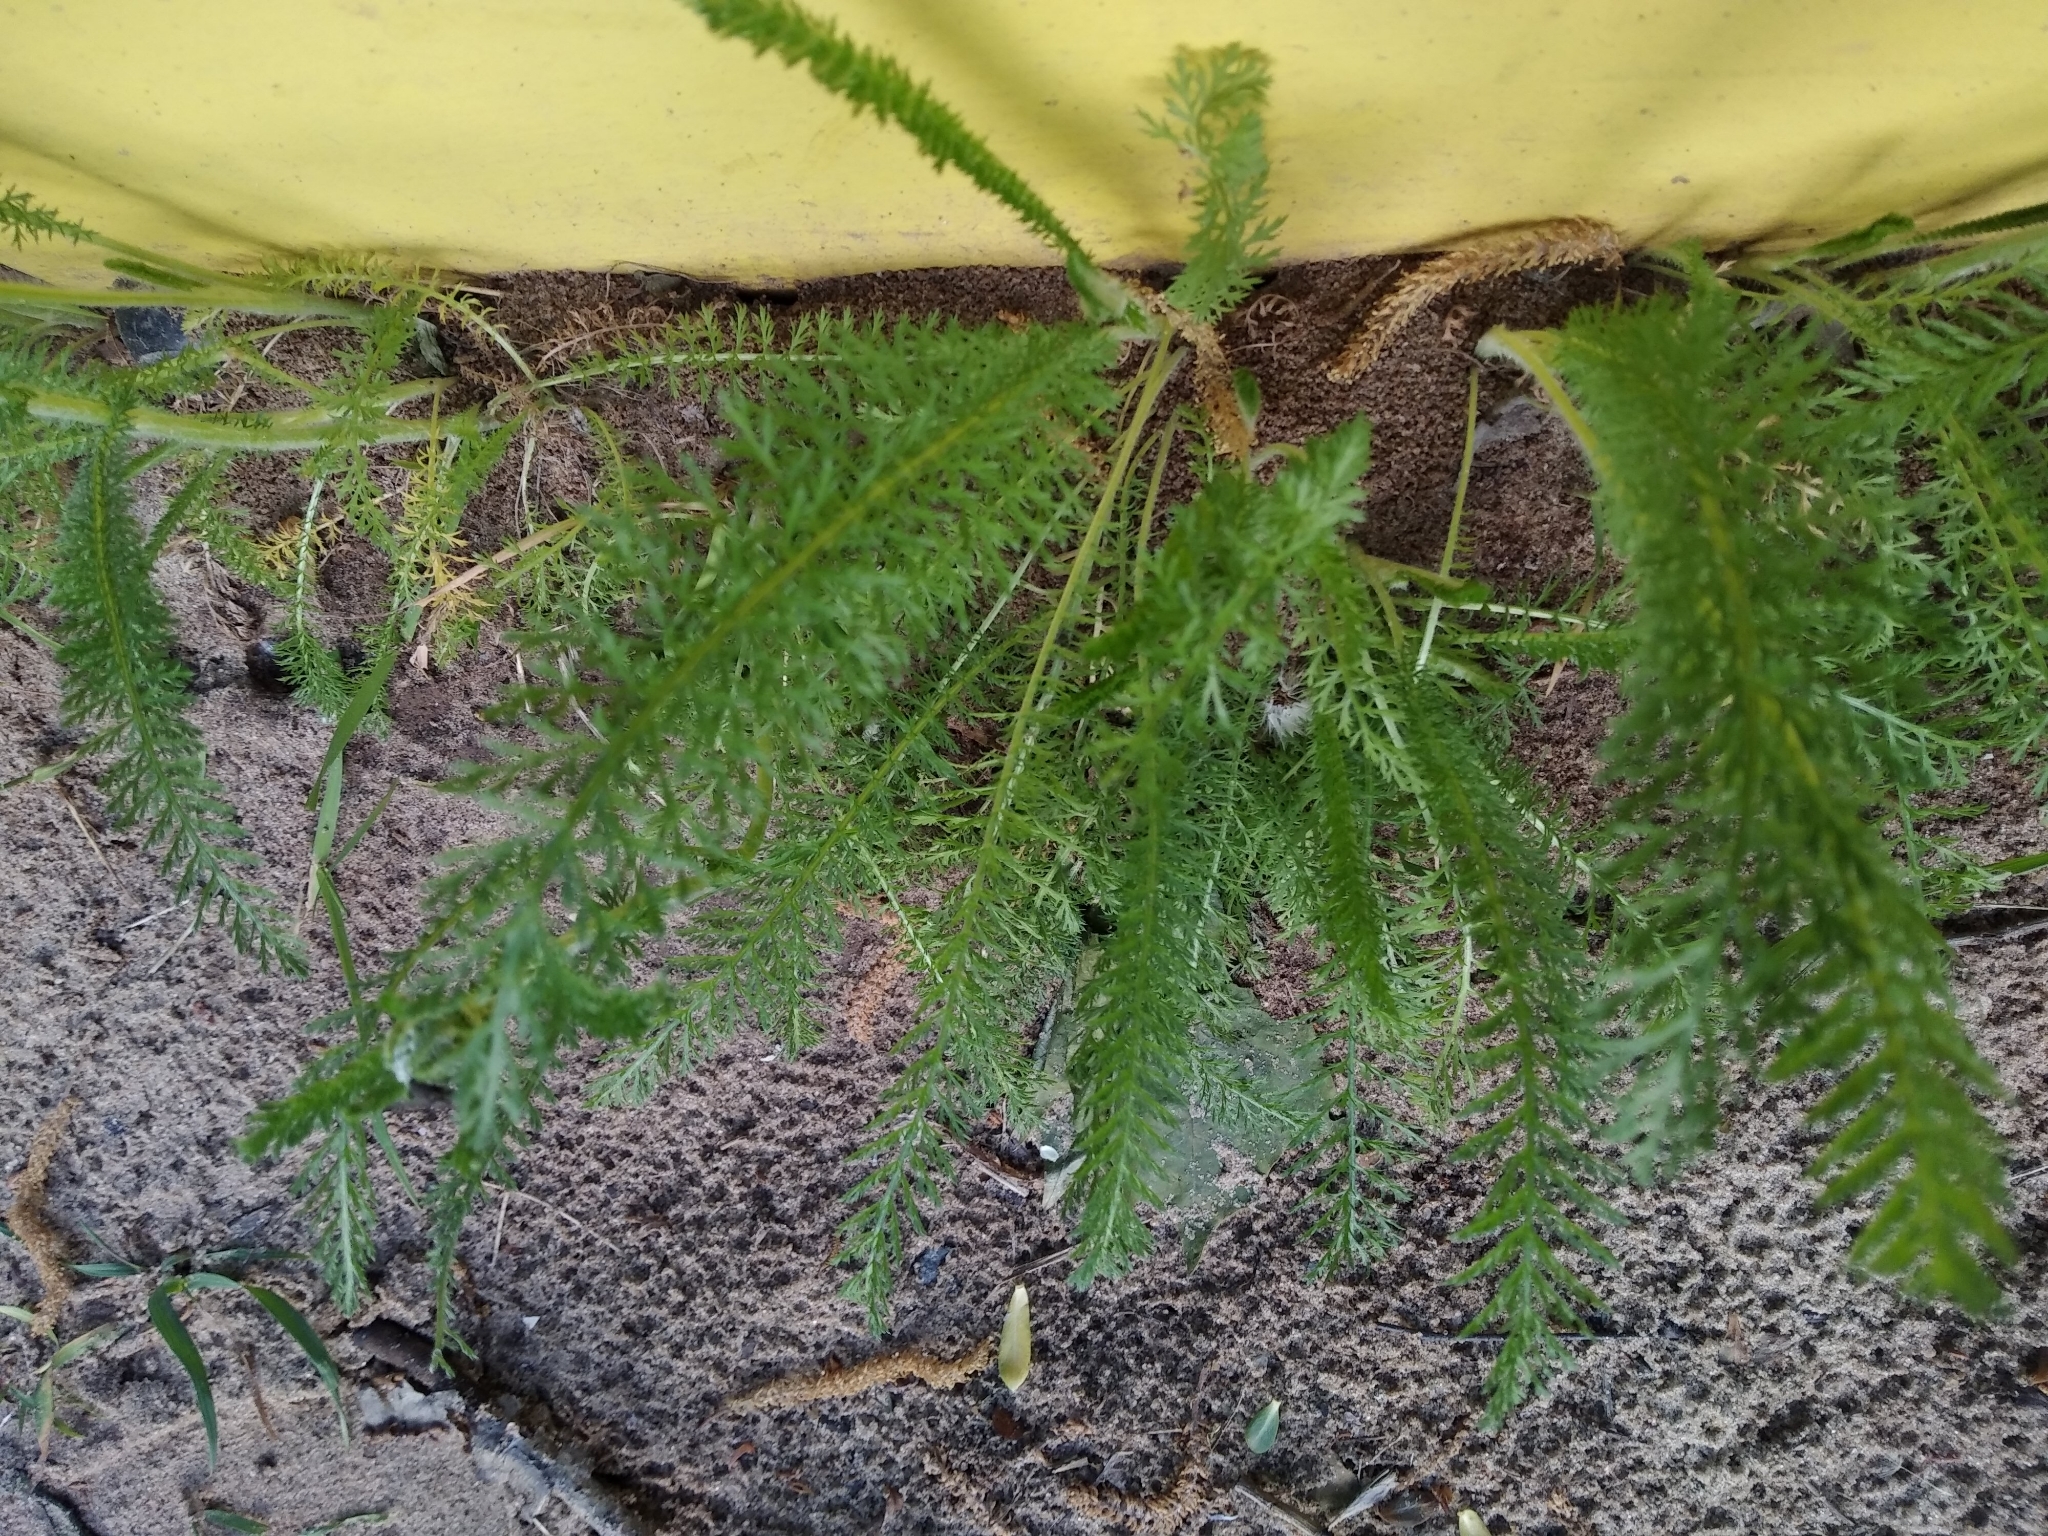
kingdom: Plantae
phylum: Tracheophyta
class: Magnoliopsida
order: Asterales
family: Asteraceae
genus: Achillea
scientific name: Achillea millefolium
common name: Yarrow
